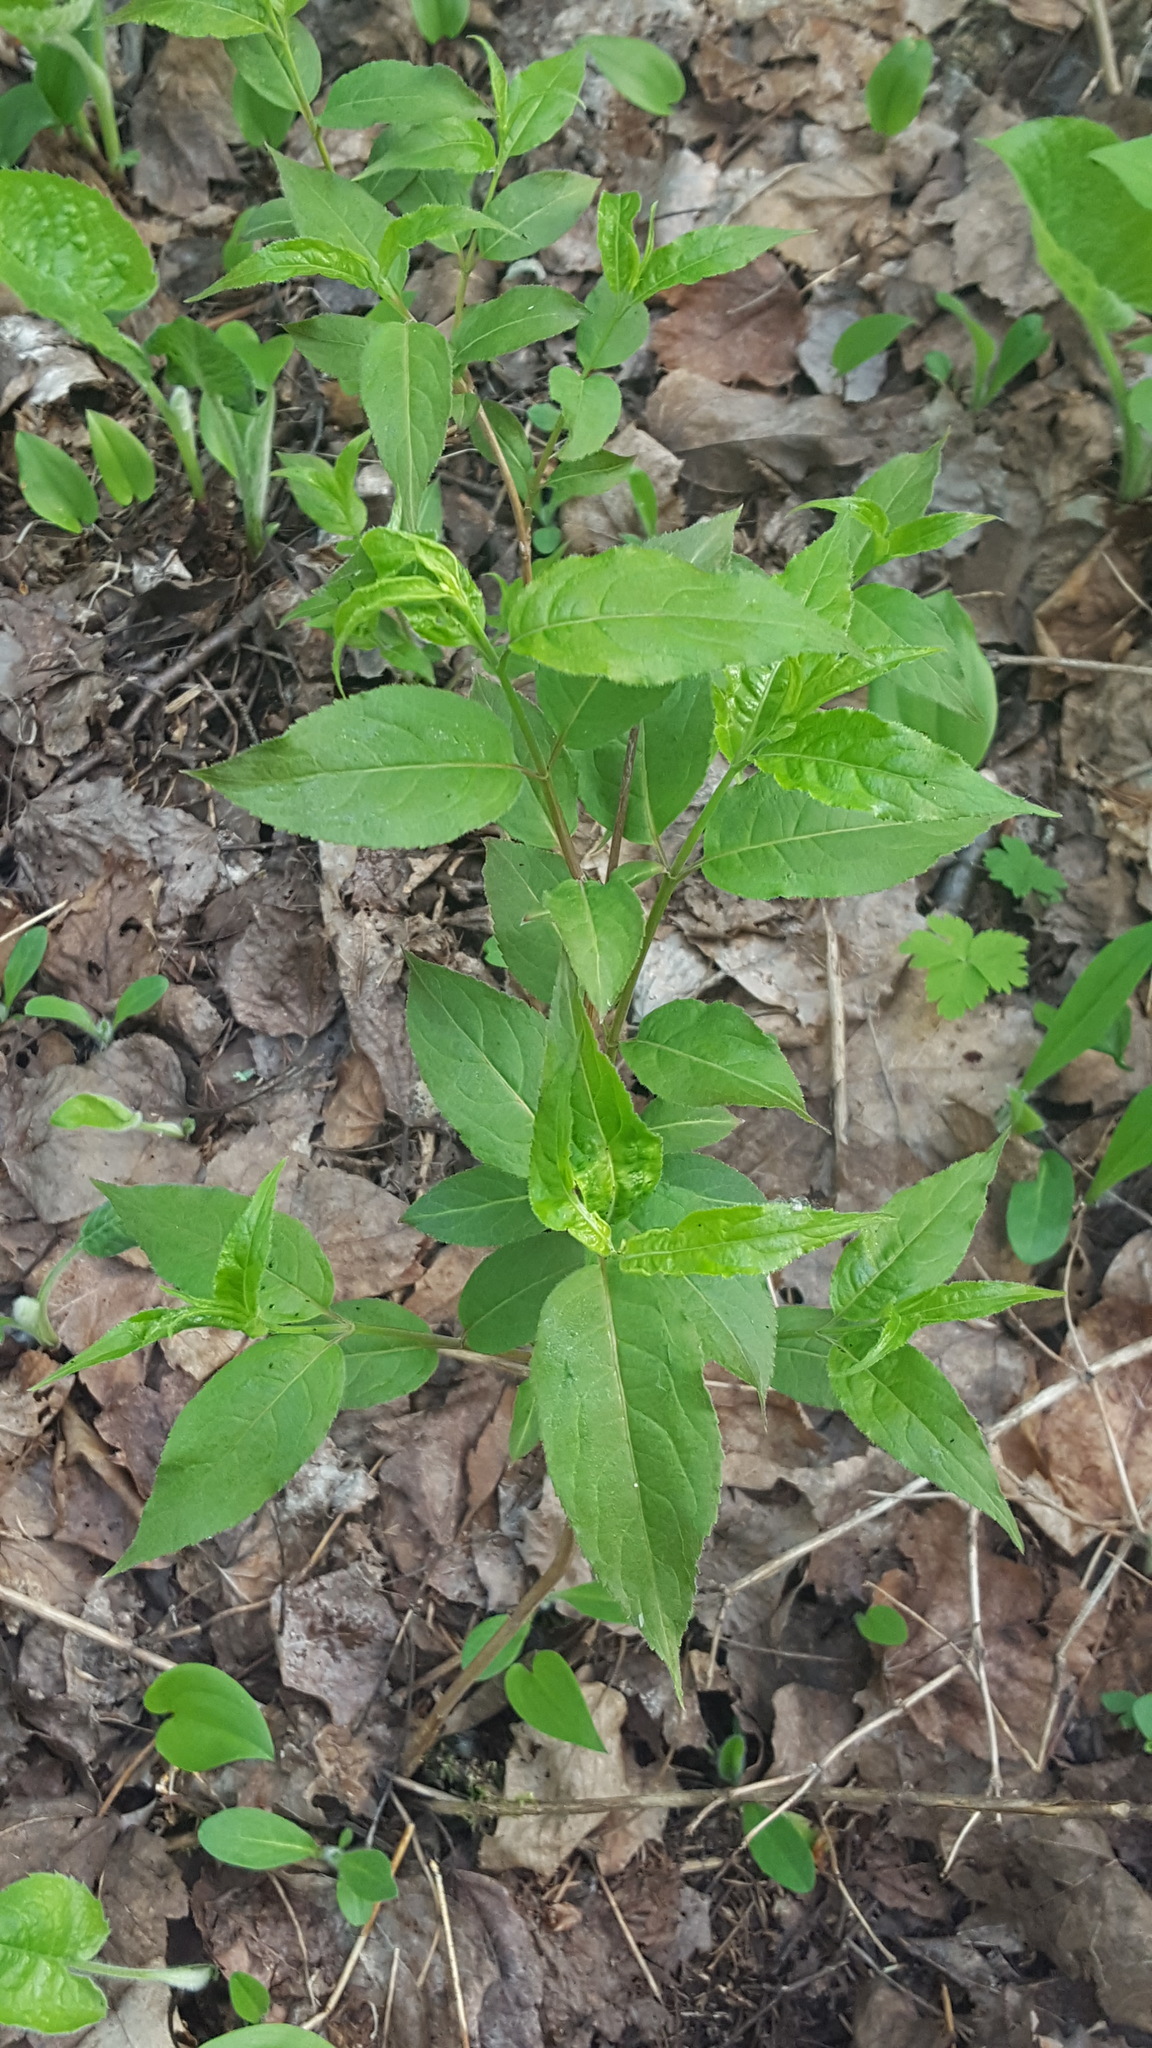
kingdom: Plantae
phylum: Tracheophyta
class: Magnoliopsida
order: Dipsacales
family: Caprifoliaceae
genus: Diervilla
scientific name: Diervilla lonicera
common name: Bush-honeysuckle
